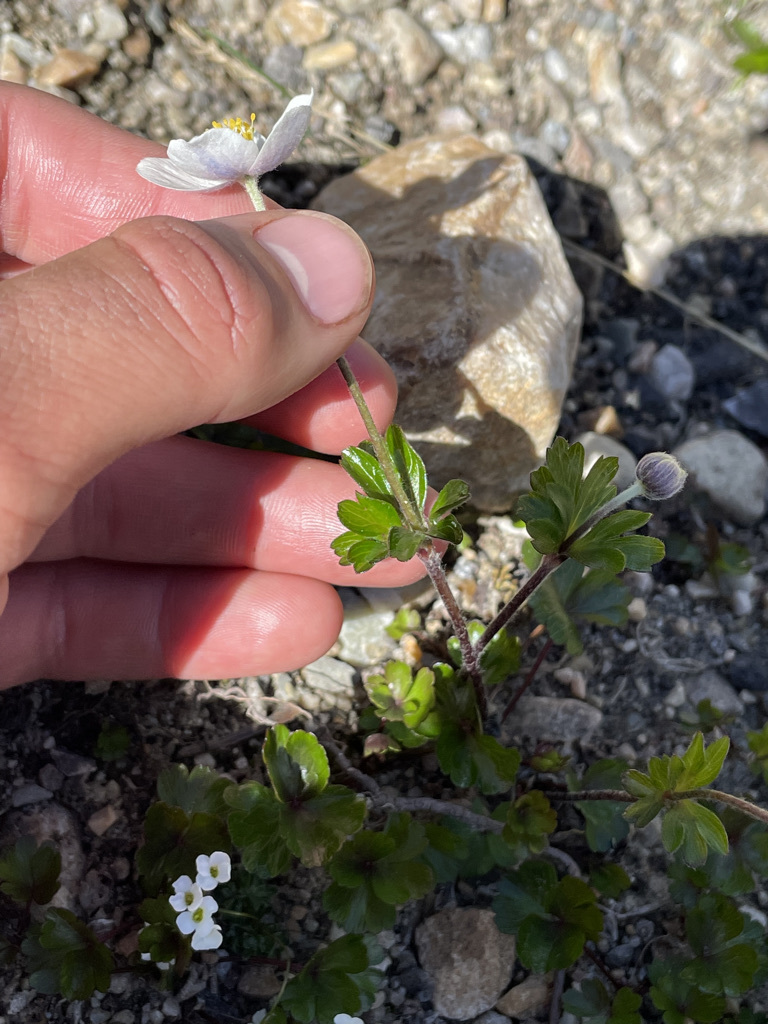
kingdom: Plantae
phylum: Tracheophyta
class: Magnoliopsida
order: Ranunculales
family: Ranunculaceae
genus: Anemone
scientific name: Anemone parviflora
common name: Northern anemone
